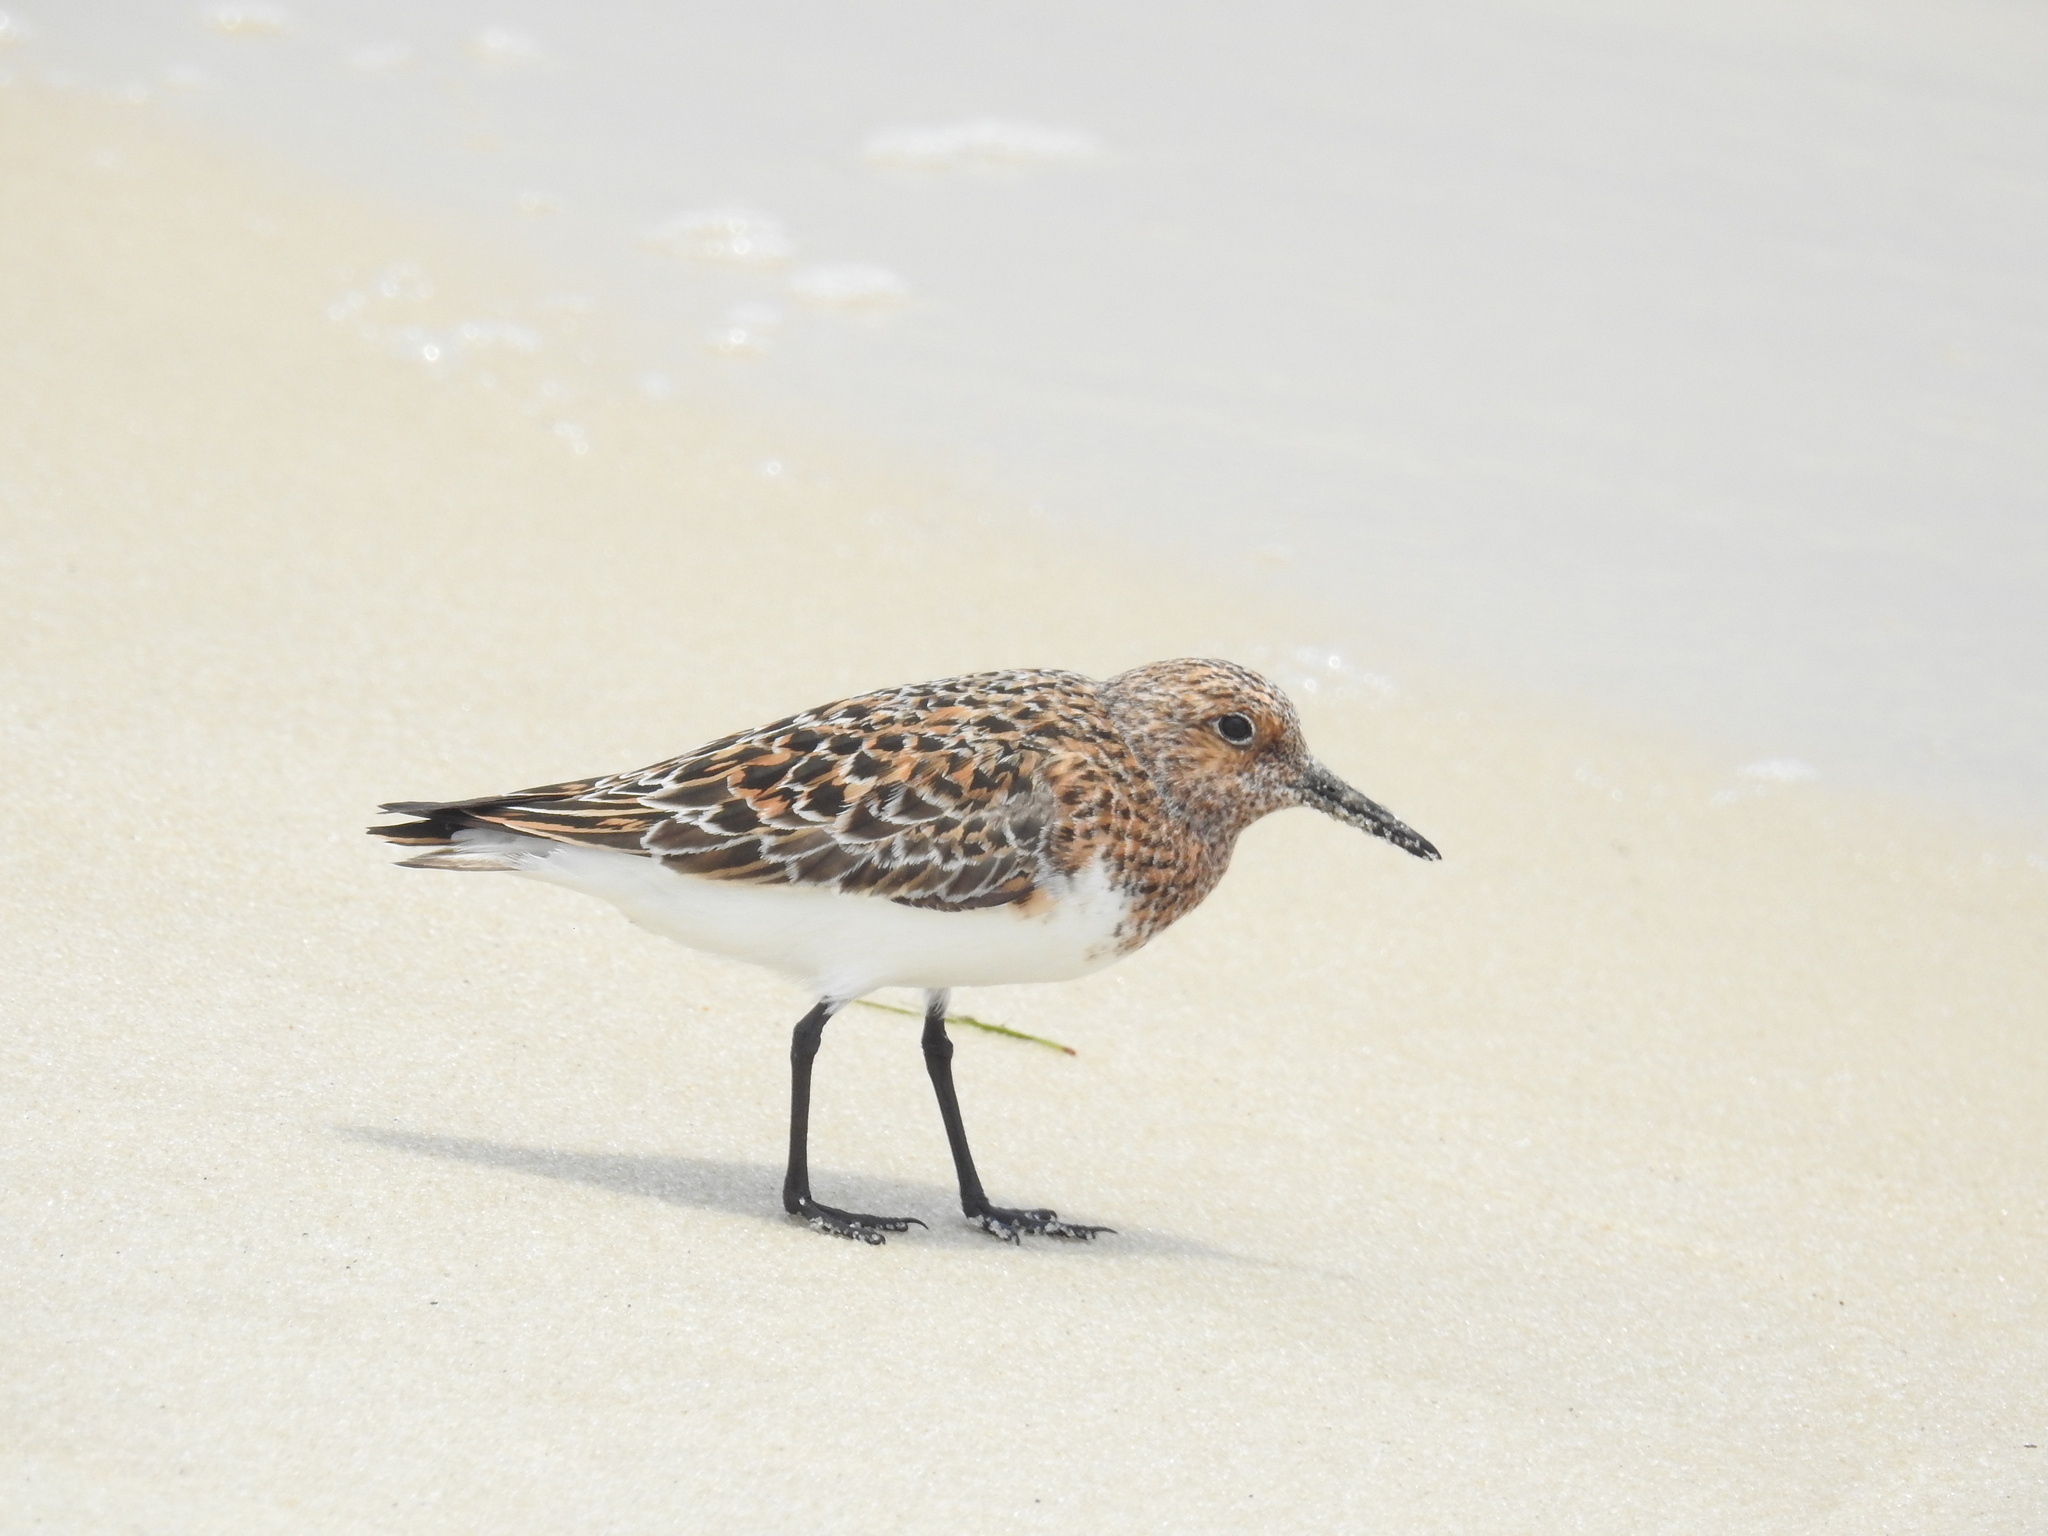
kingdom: Animalia
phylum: Chordata
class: Aves
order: Charadriiformes
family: Scolopacidae
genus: Calidris
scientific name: Calidris alba
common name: Sanderling
